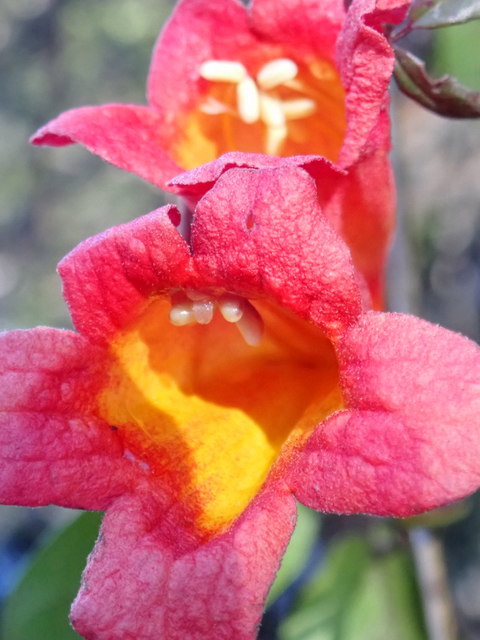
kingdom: Plantae
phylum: Tracheophyta
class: Magnoliopsida
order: Lamiales
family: Bignoniaceae
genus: Bignonia
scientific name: Bignonia capreolata
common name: Crossvine
